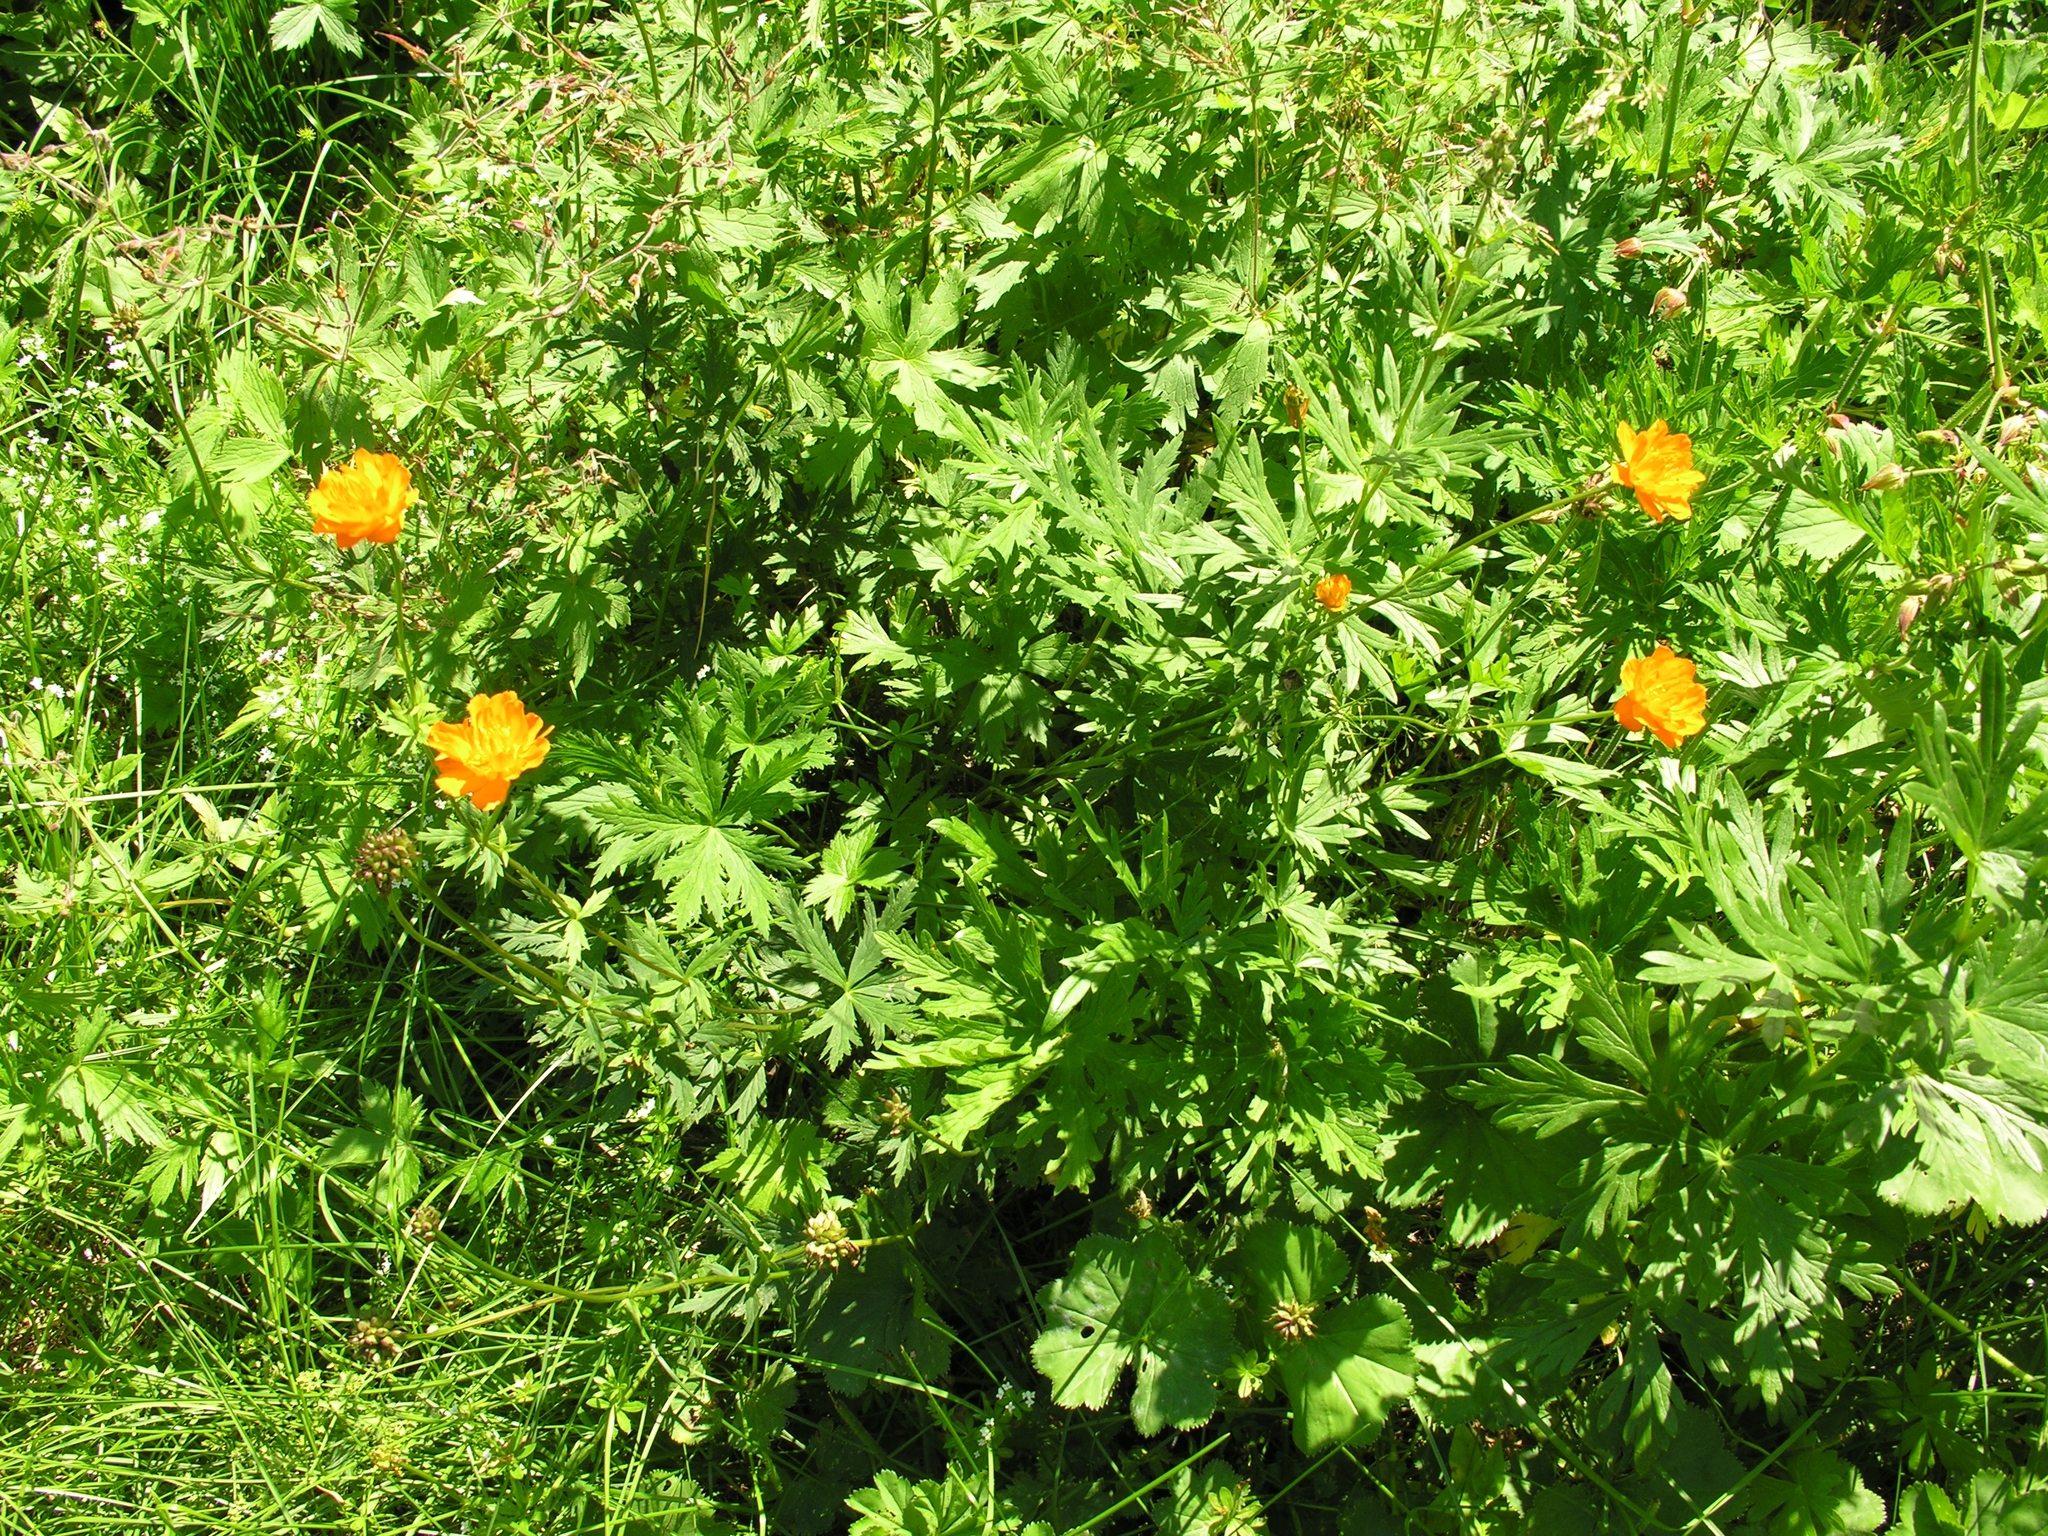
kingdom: Plantae
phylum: Tracheophyta
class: Magnoliopsida
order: Ranunculales
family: Ranunculaceae
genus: Trollius
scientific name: Trollius asiaticus
